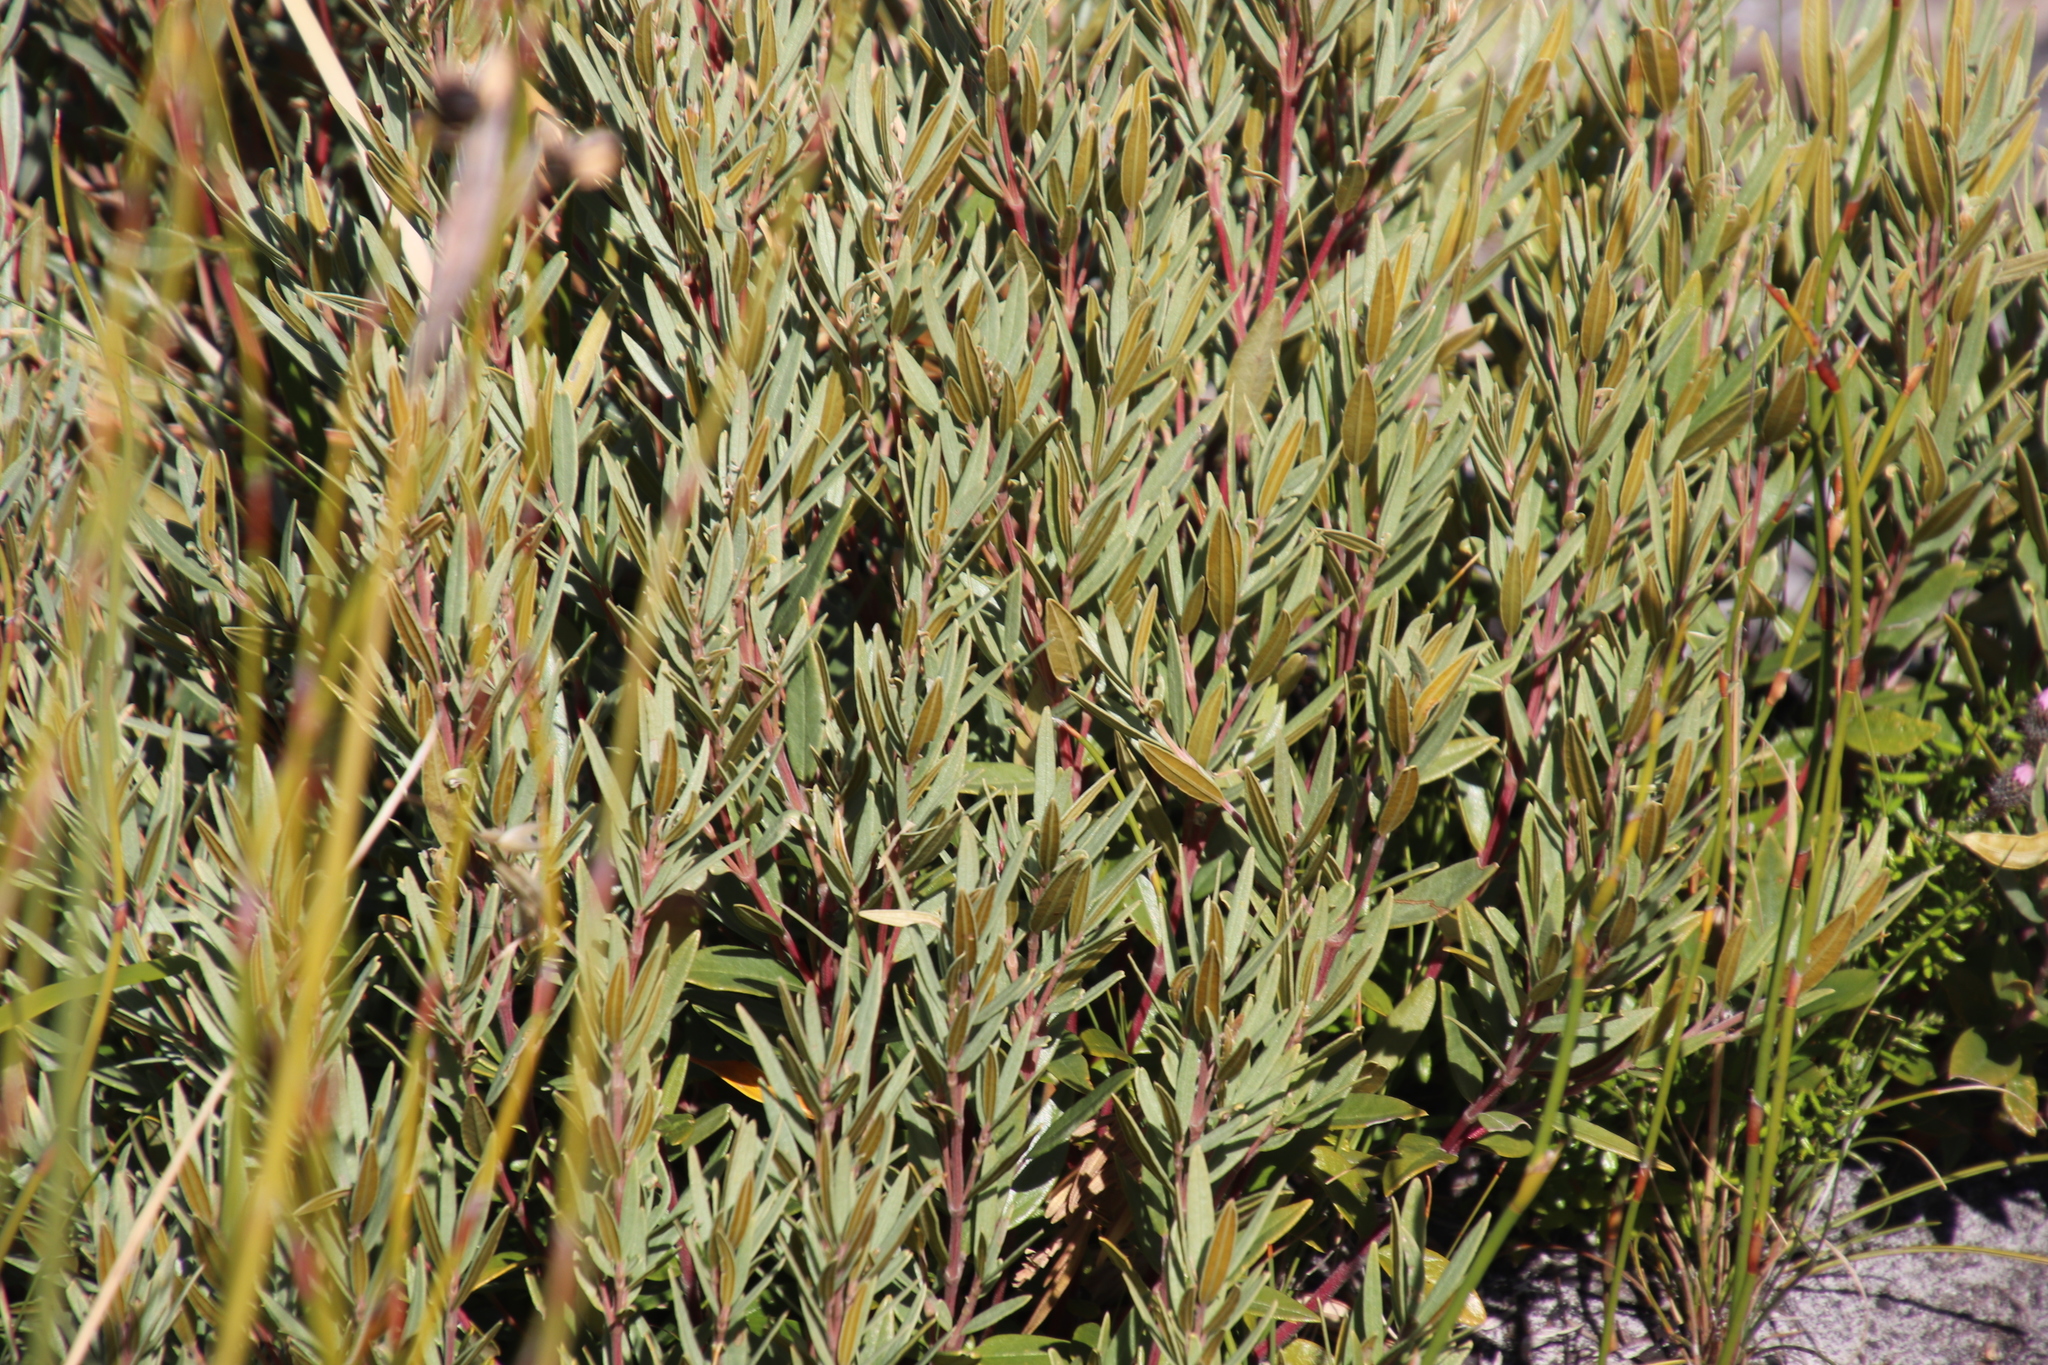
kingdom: Plantae
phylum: Tracheophyta
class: Magnoliopsida
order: Cornales
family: Grubbiaceae
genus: Grubbia
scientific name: Grubbia tomentosa
